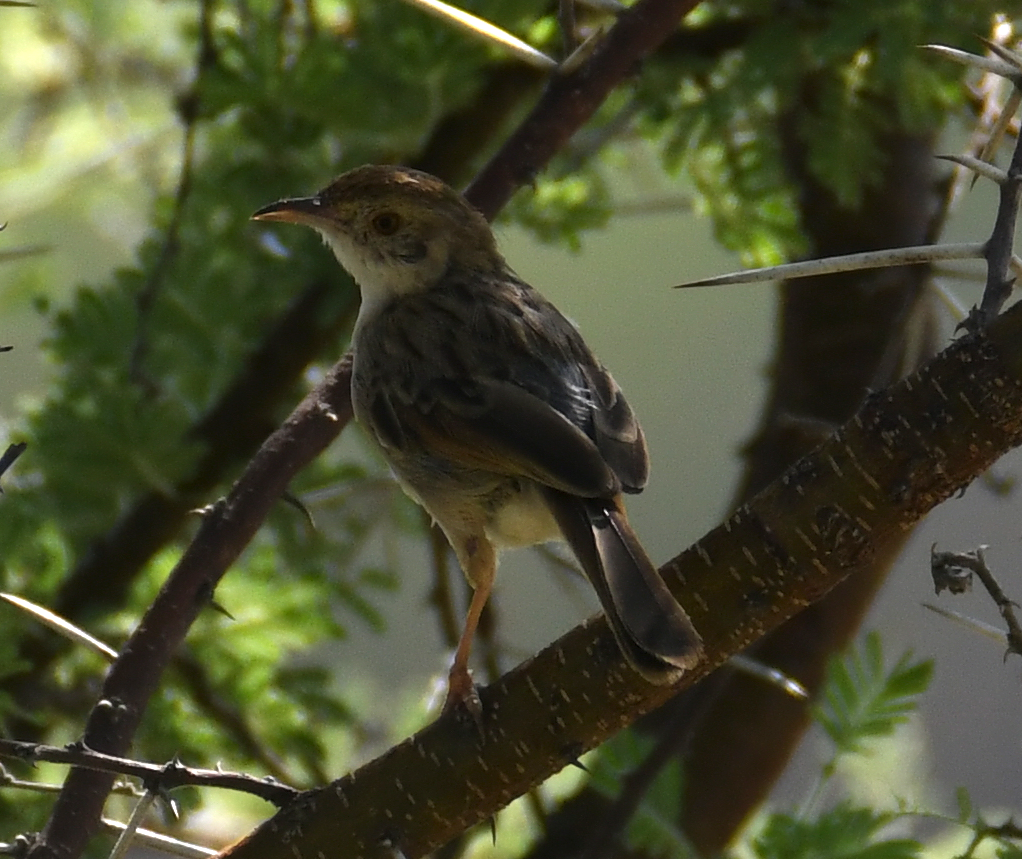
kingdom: Animalia
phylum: Chordata
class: Aves
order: Passeriformes
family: Cisticolidae
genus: Cisticola
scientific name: Cisticola chiniana
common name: Rattling cisticola
